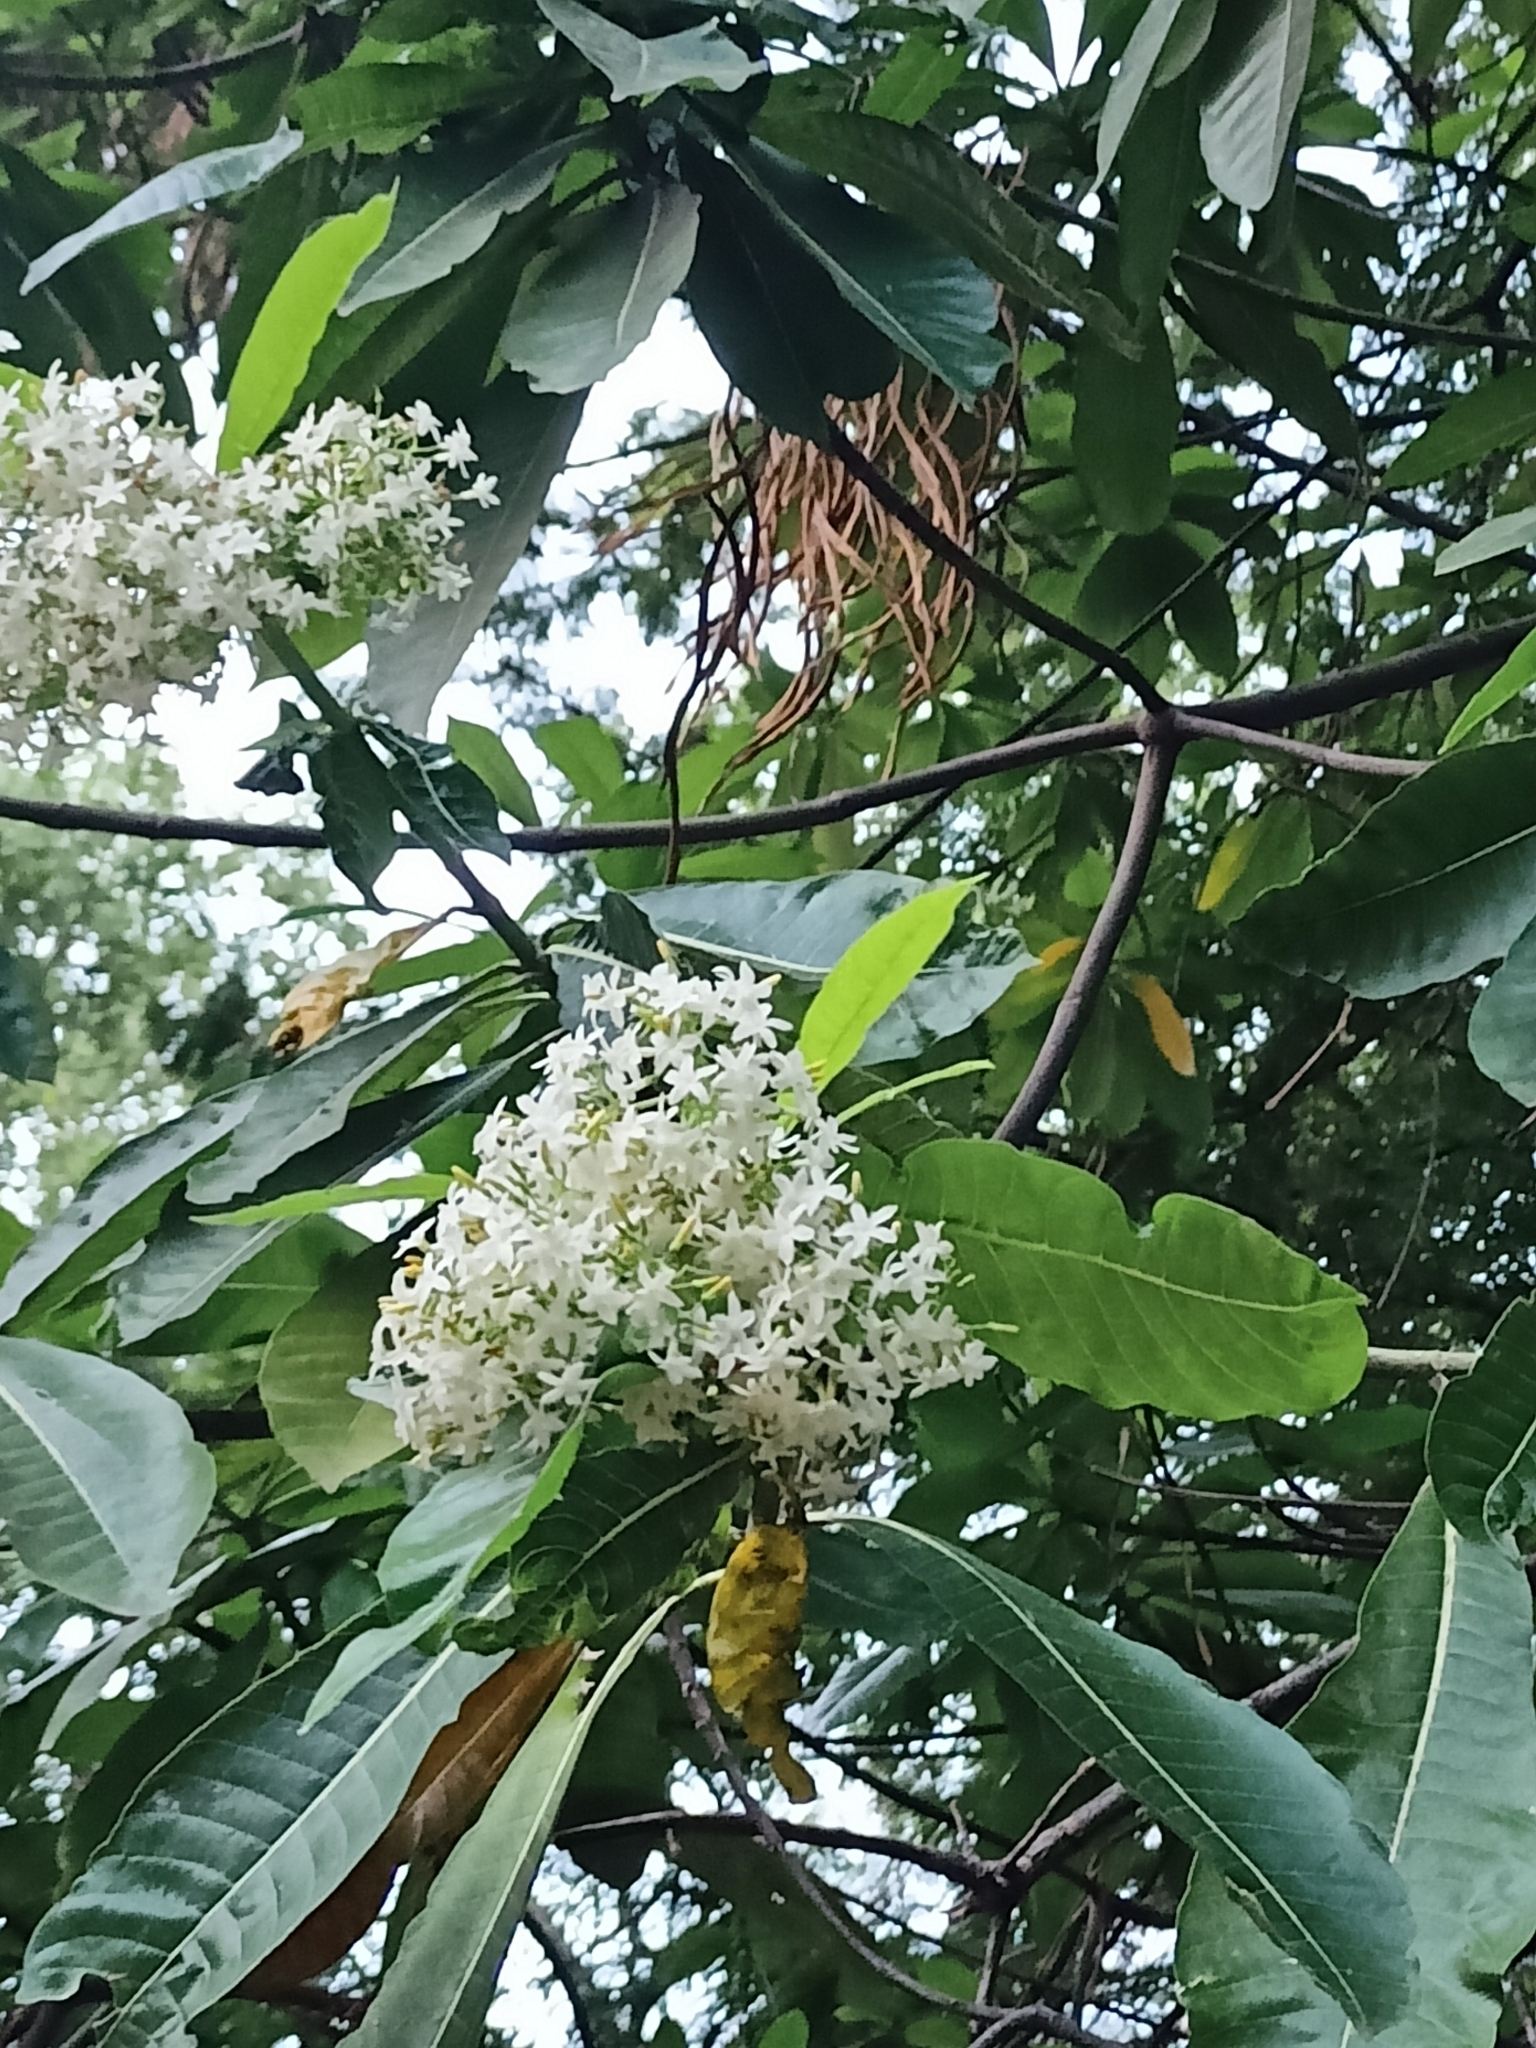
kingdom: Plantae
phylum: Tracheophyta
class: Magnoliopsida
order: Gentianales
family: Apocynaceae
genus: Alstonia
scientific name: Alstonia macrophylla
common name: Deviltree
